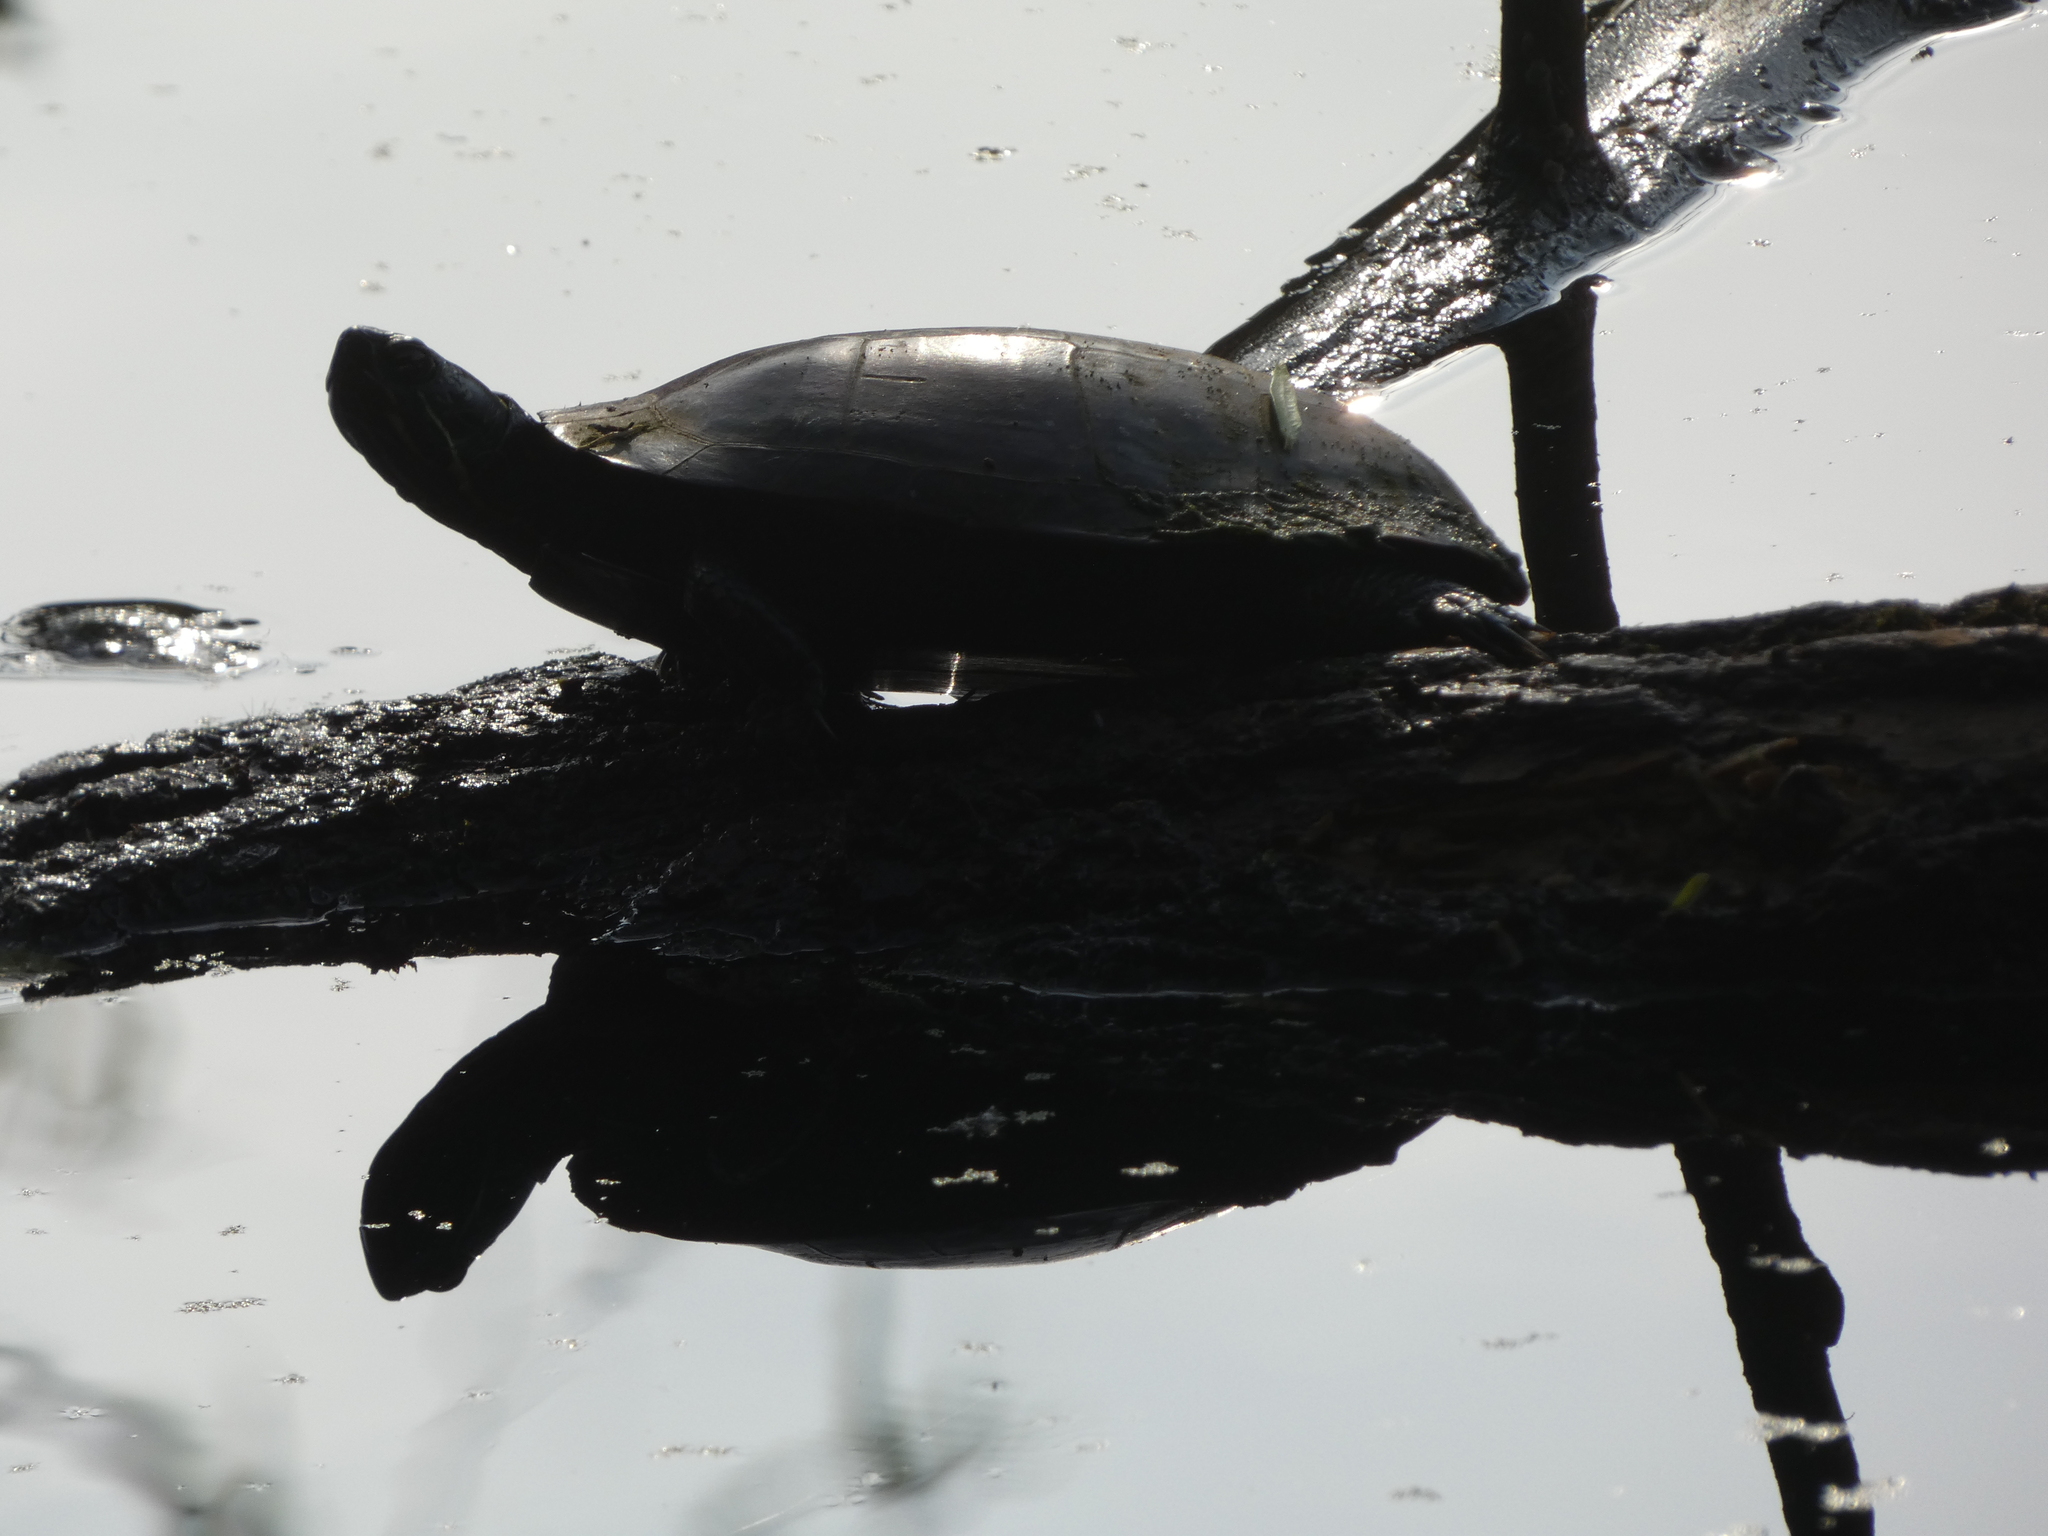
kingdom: Animalia
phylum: Chordata
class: Testudines
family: Emydidae
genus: Chrysemys
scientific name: Chrysemys picta
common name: Painted turtle
